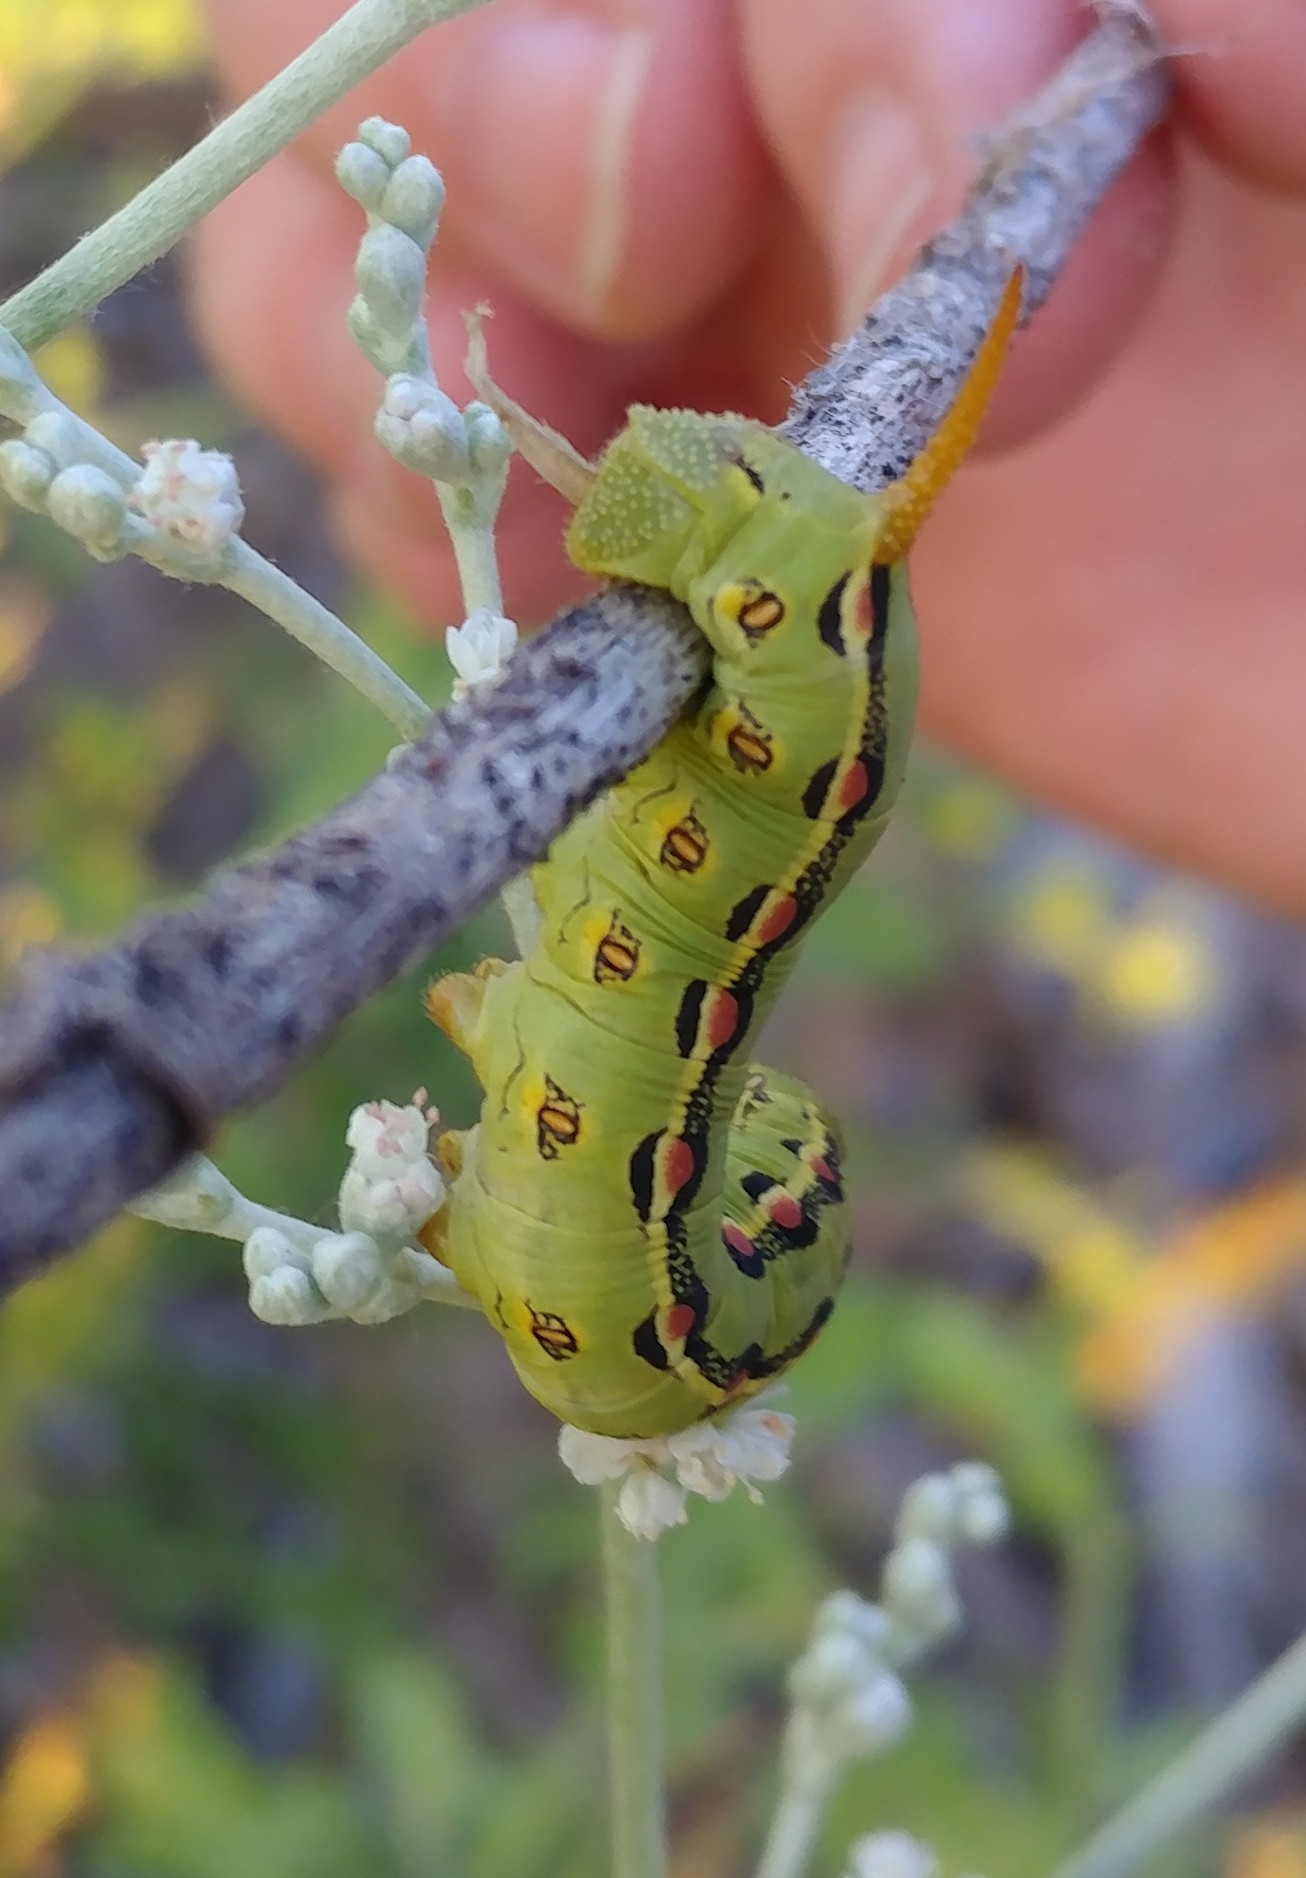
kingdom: Animalia
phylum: Arthropoda
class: Insecta
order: Lepidoptera
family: Sphingidae
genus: Hyles
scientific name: Hyles lineata
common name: White-lined sphinx
